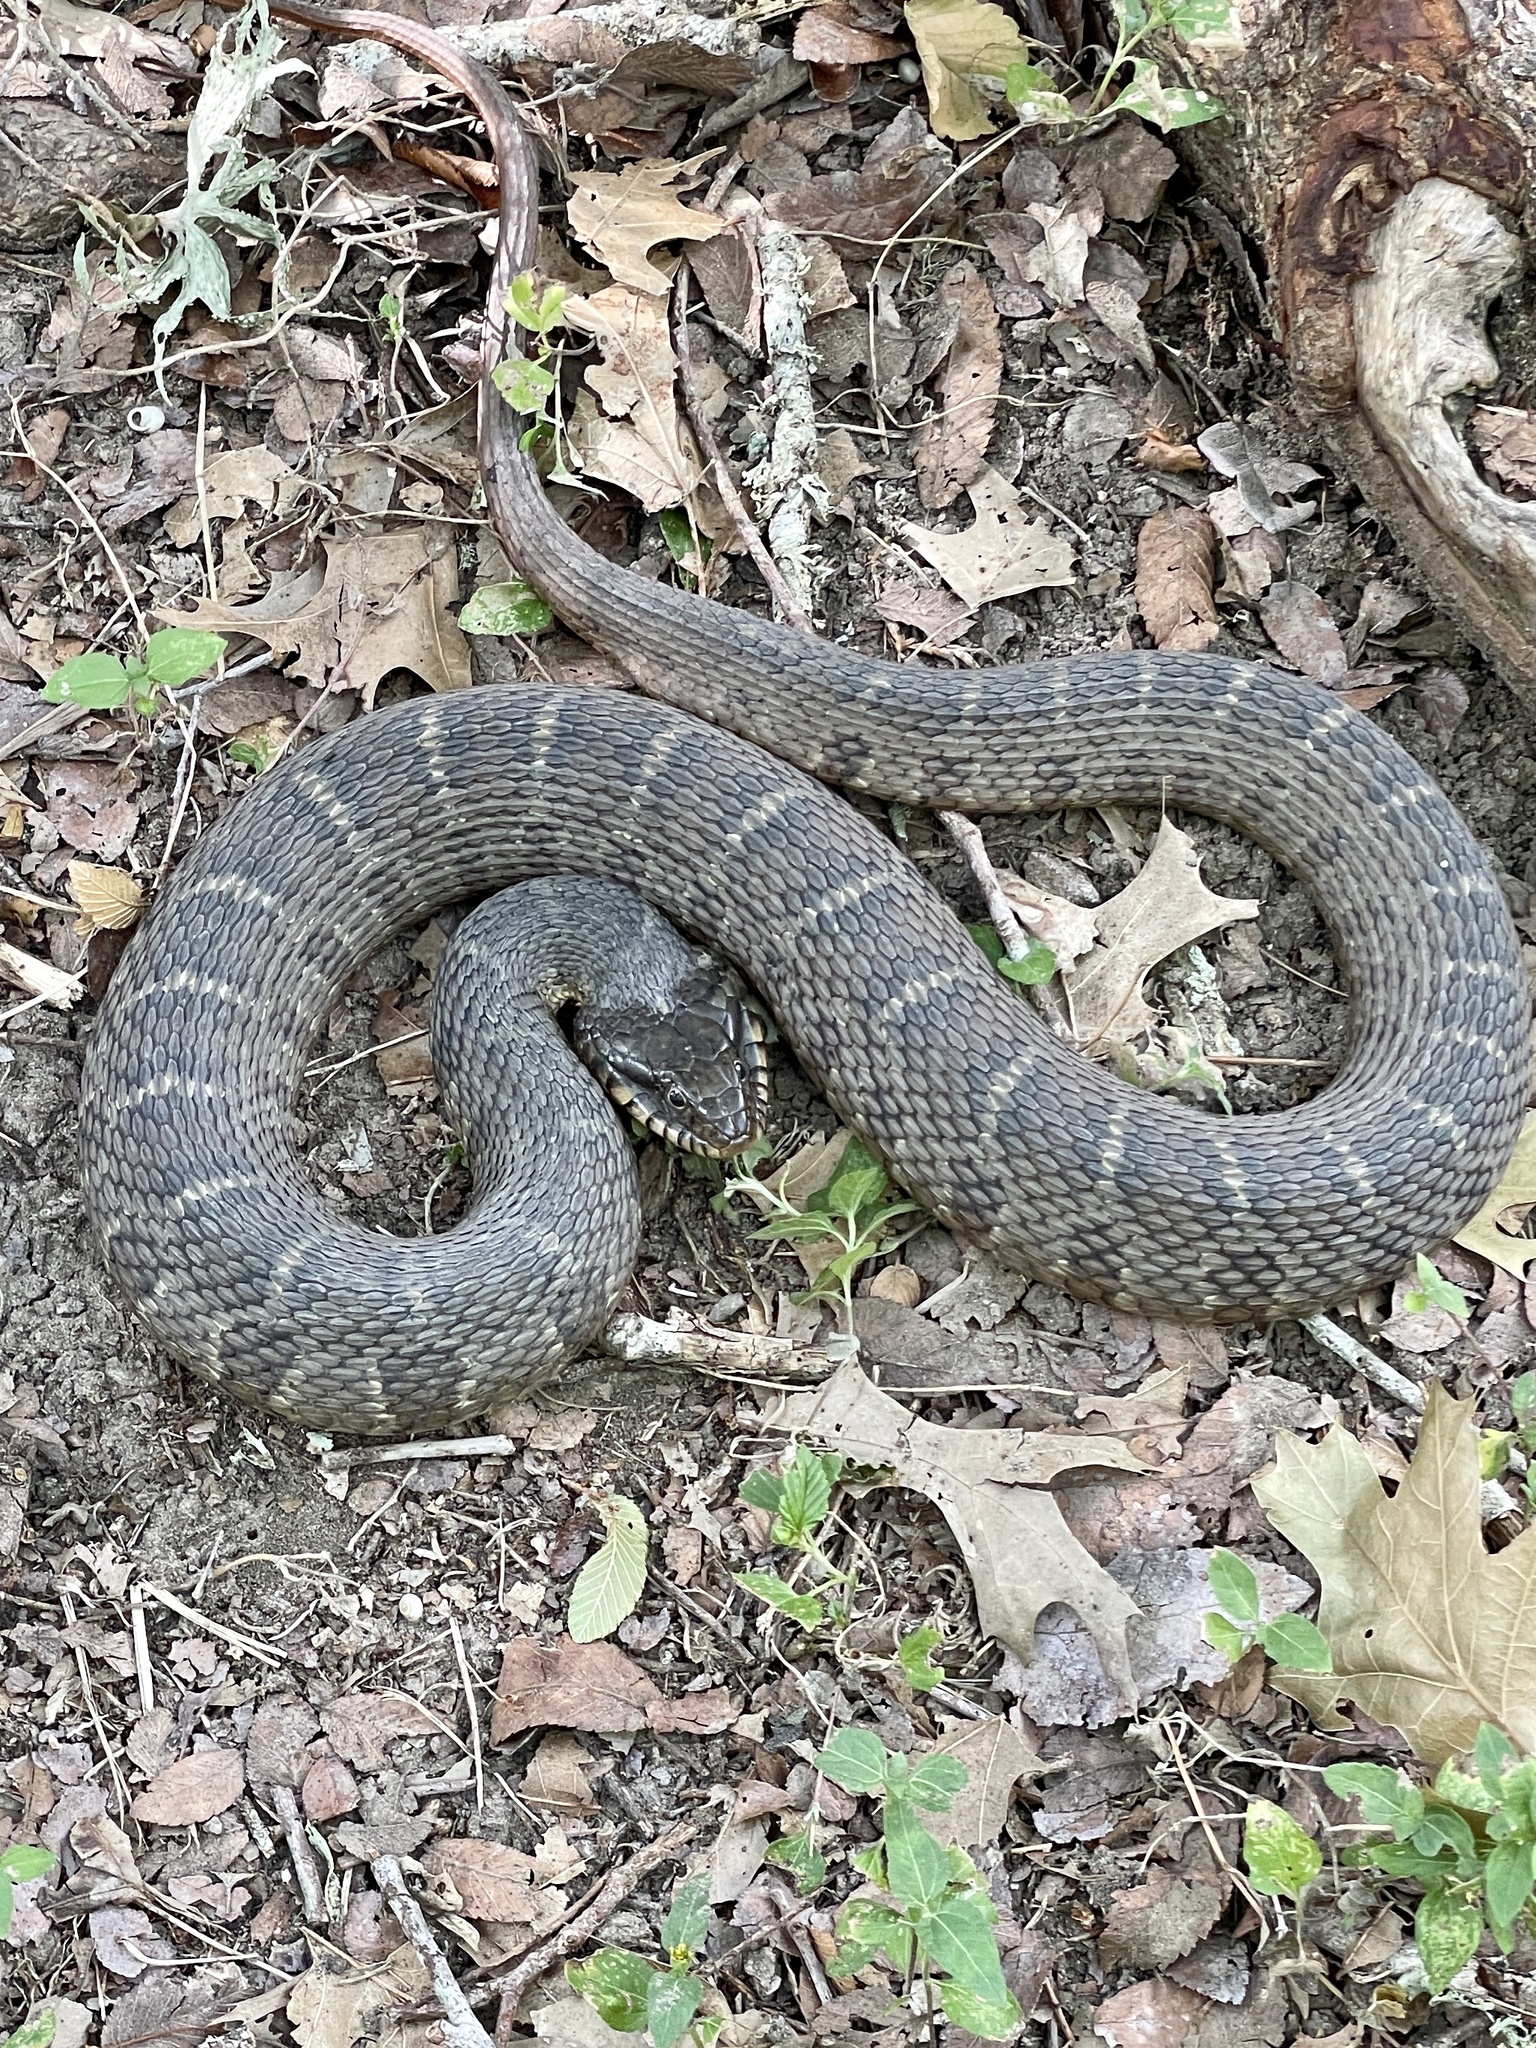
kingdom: Animalia
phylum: Chordata
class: Squamata
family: Colubridae
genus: Nerodia
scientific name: Nerodia erythrogaster
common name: Plainbelly water snake
